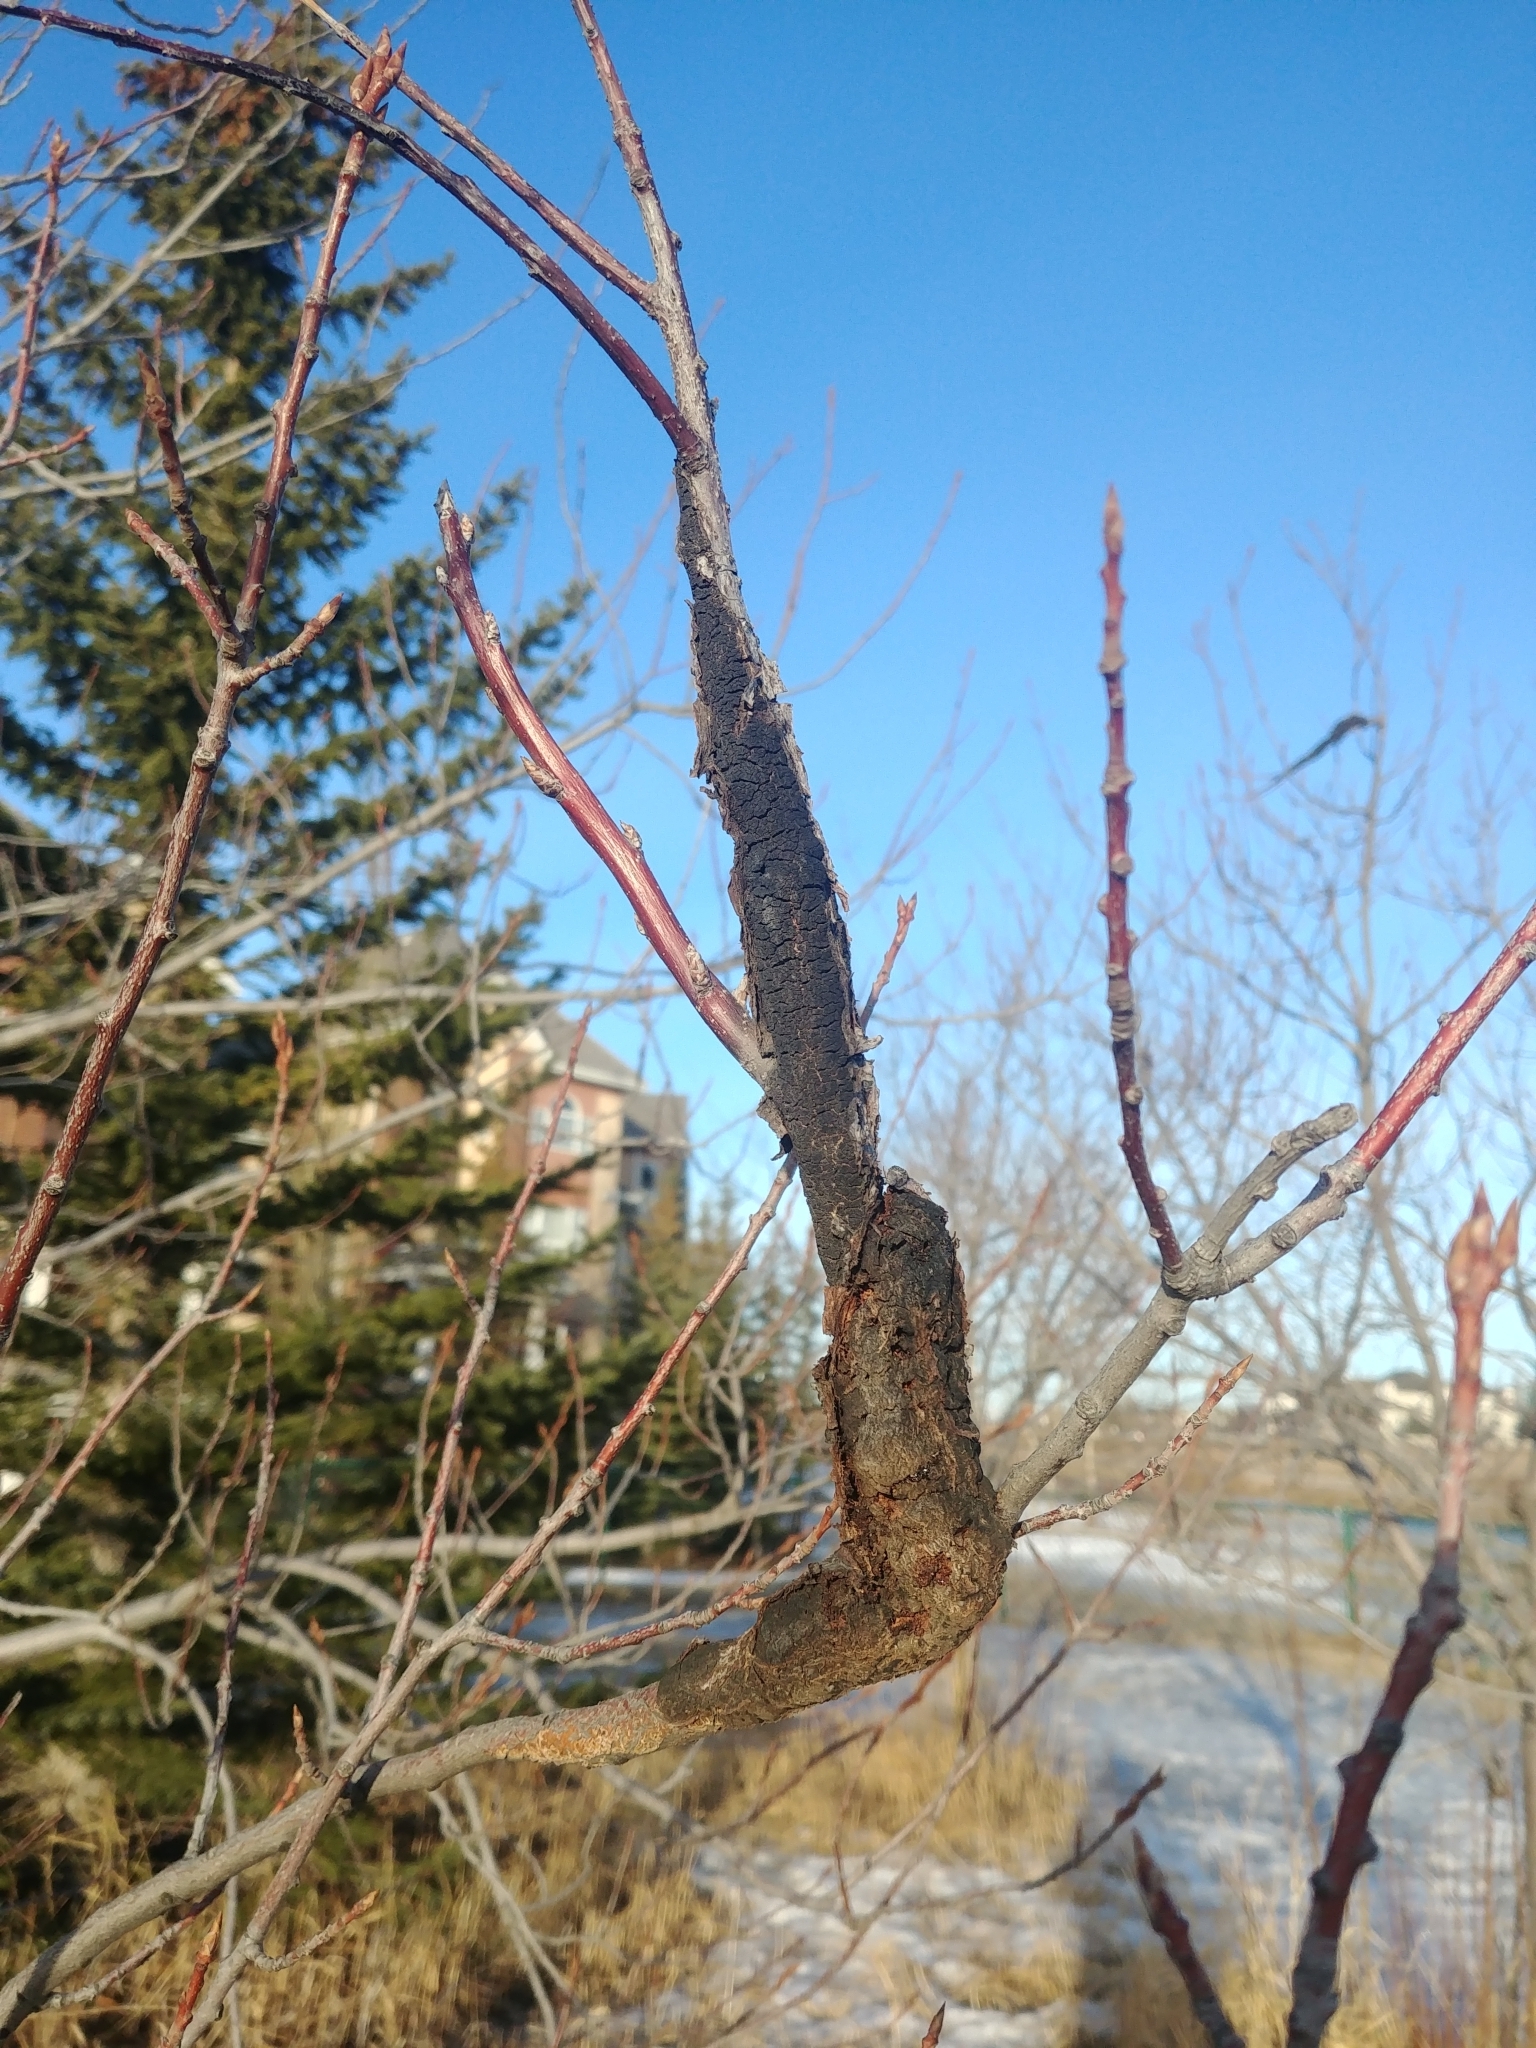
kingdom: Fungi
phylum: Ascomycota
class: Dothideomycetes
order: Venturiales
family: Venturiaceae
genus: Apiosporina
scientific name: Apiosporina morbosa
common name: Black knot
